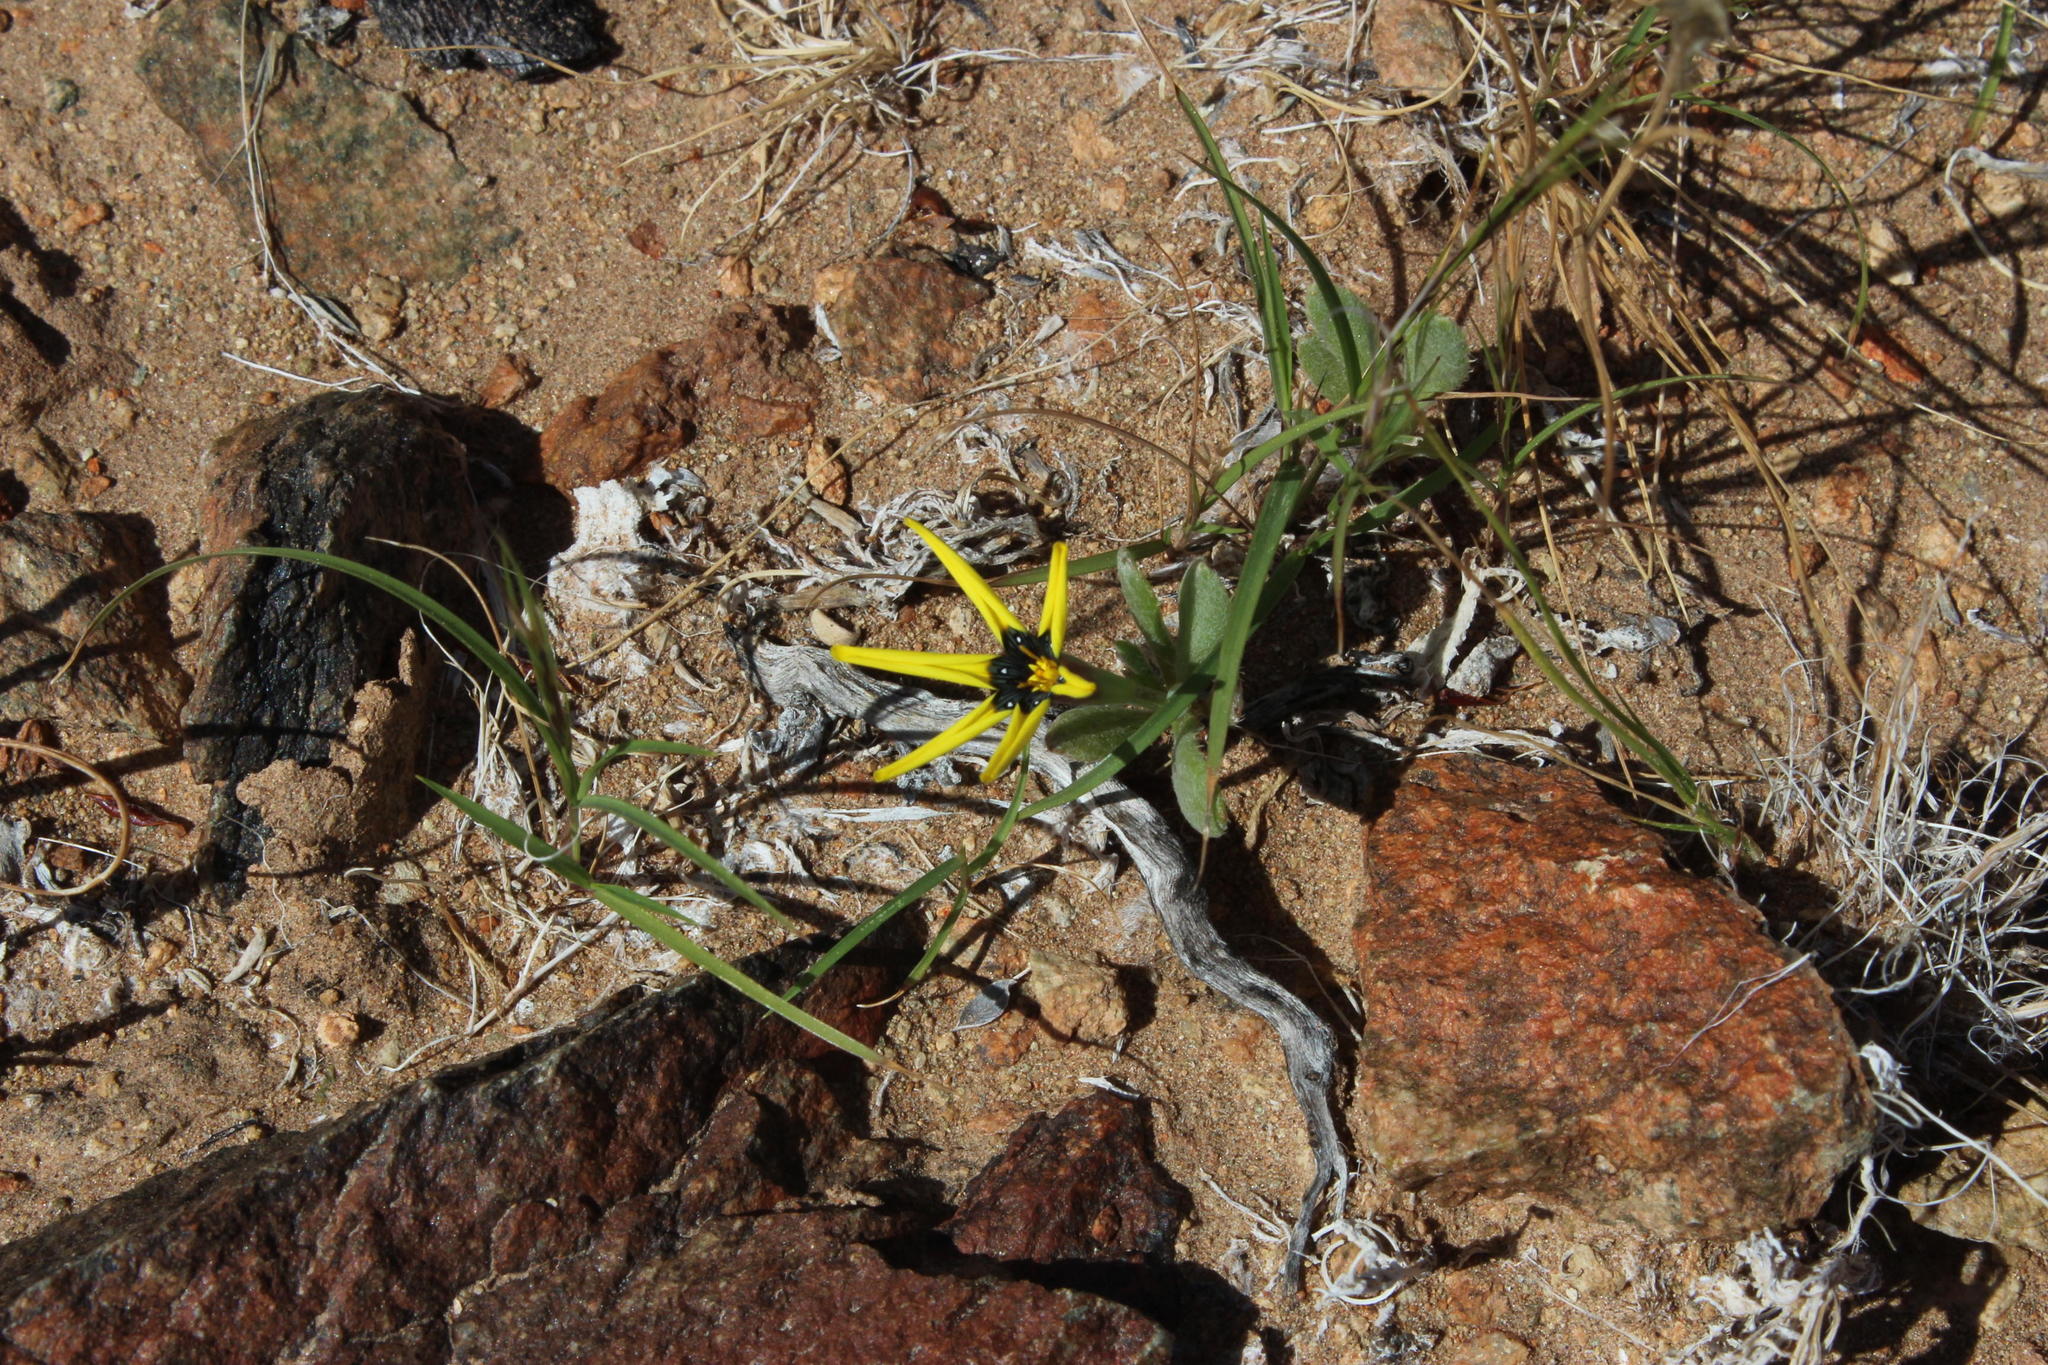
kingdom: Plantae
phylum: Tracheophyta
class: Magnoliopsida
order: Asterales
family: Asteraceae
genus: Gazania
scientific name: Gazania lichtensteinii
